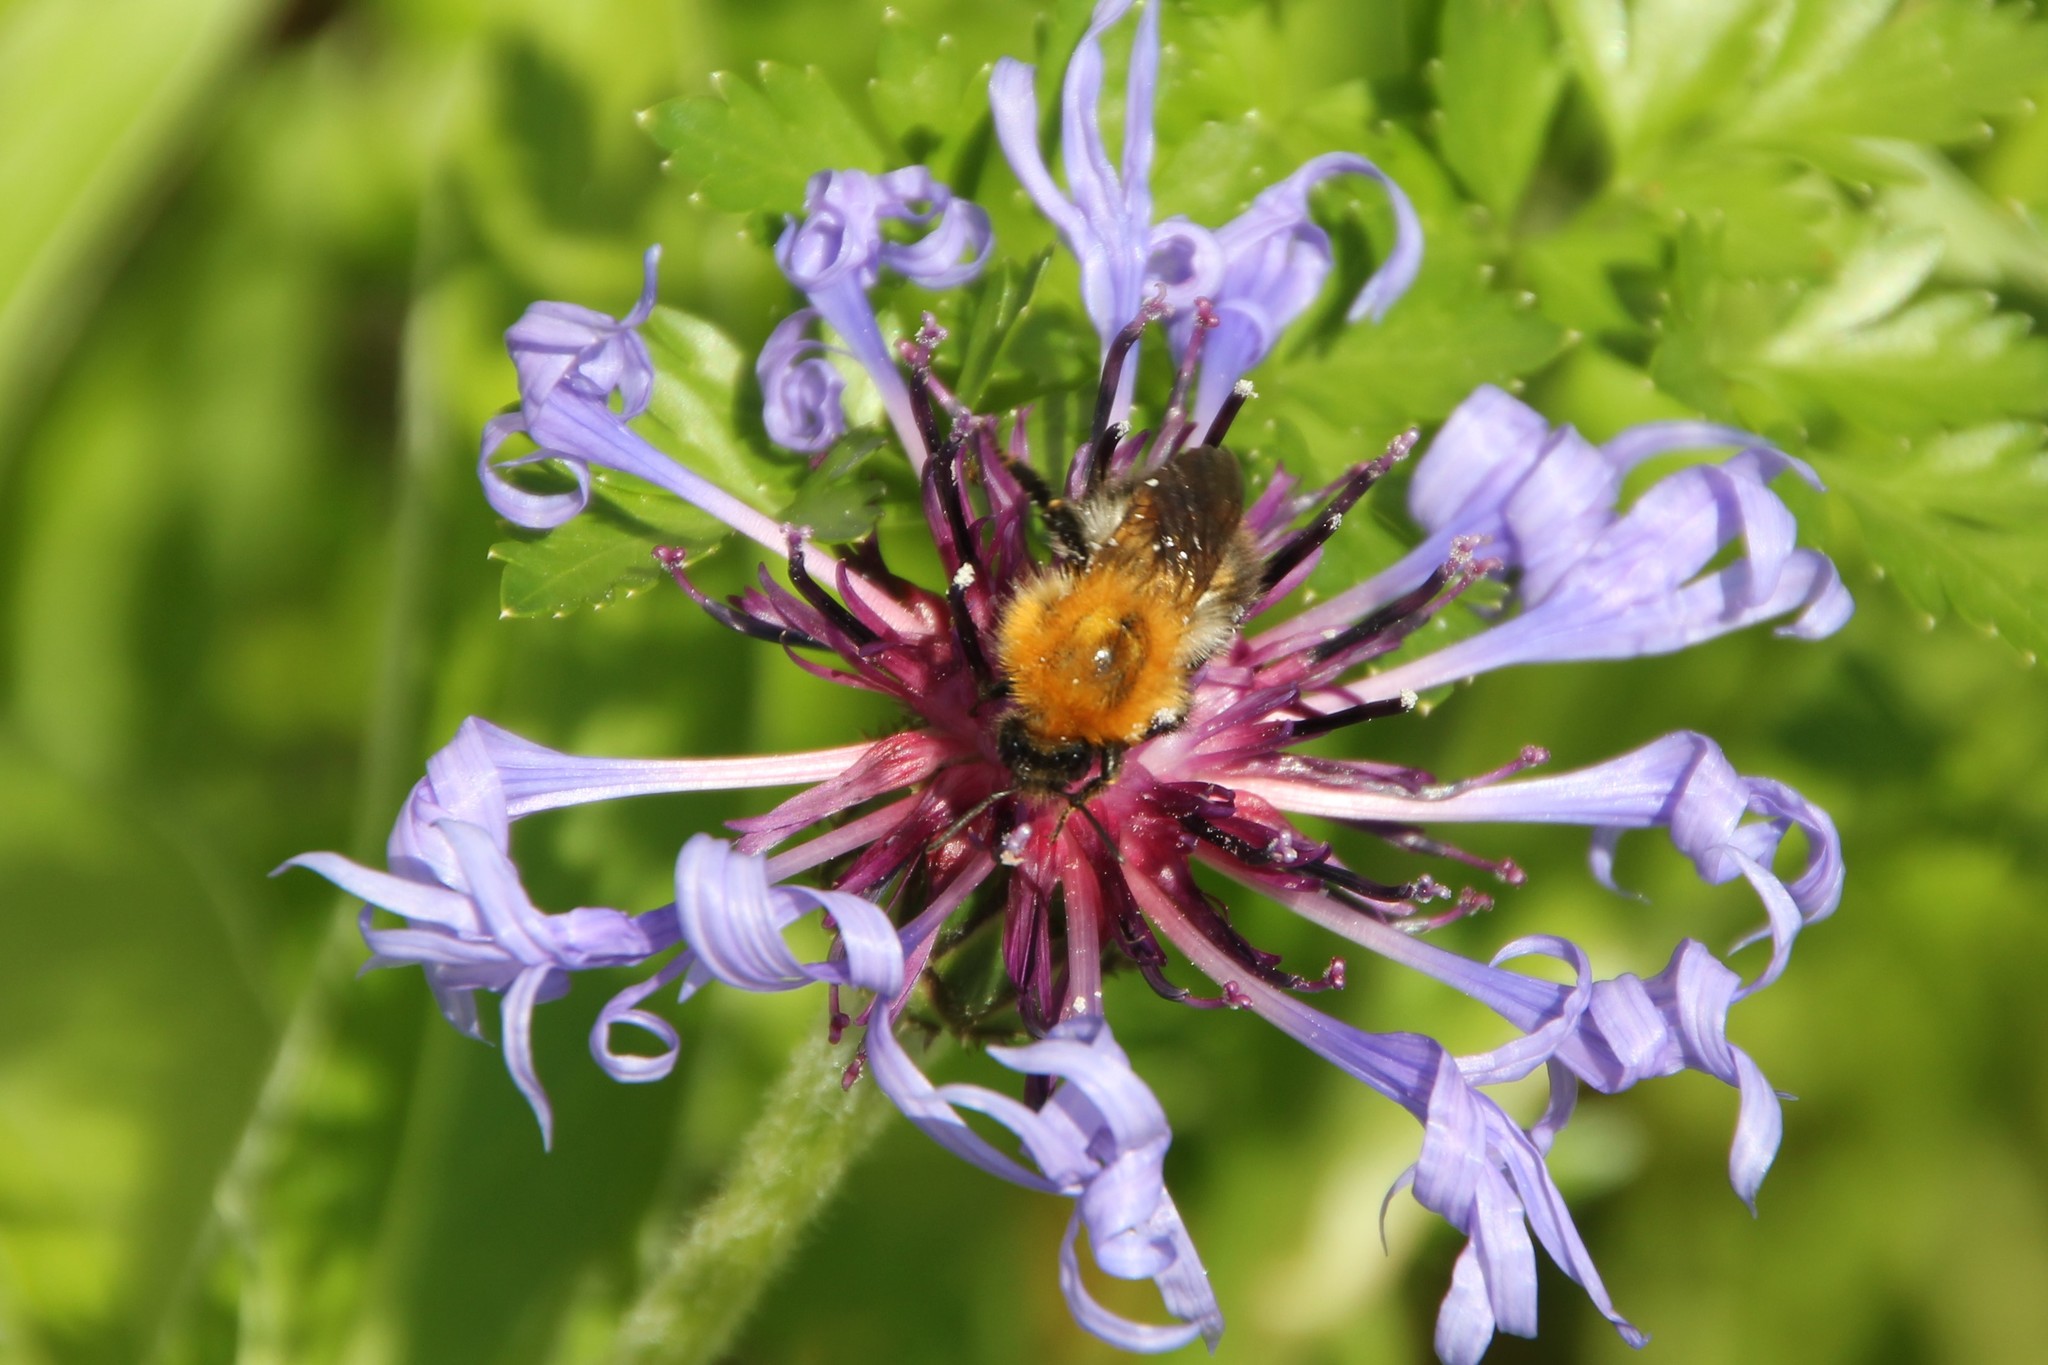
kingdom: Animalia
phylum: Arthropoda
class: Insecta
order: Hymenoptera
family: Apidae
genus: Bombus
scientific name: Bombus pascuorum
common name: Common carder bee
